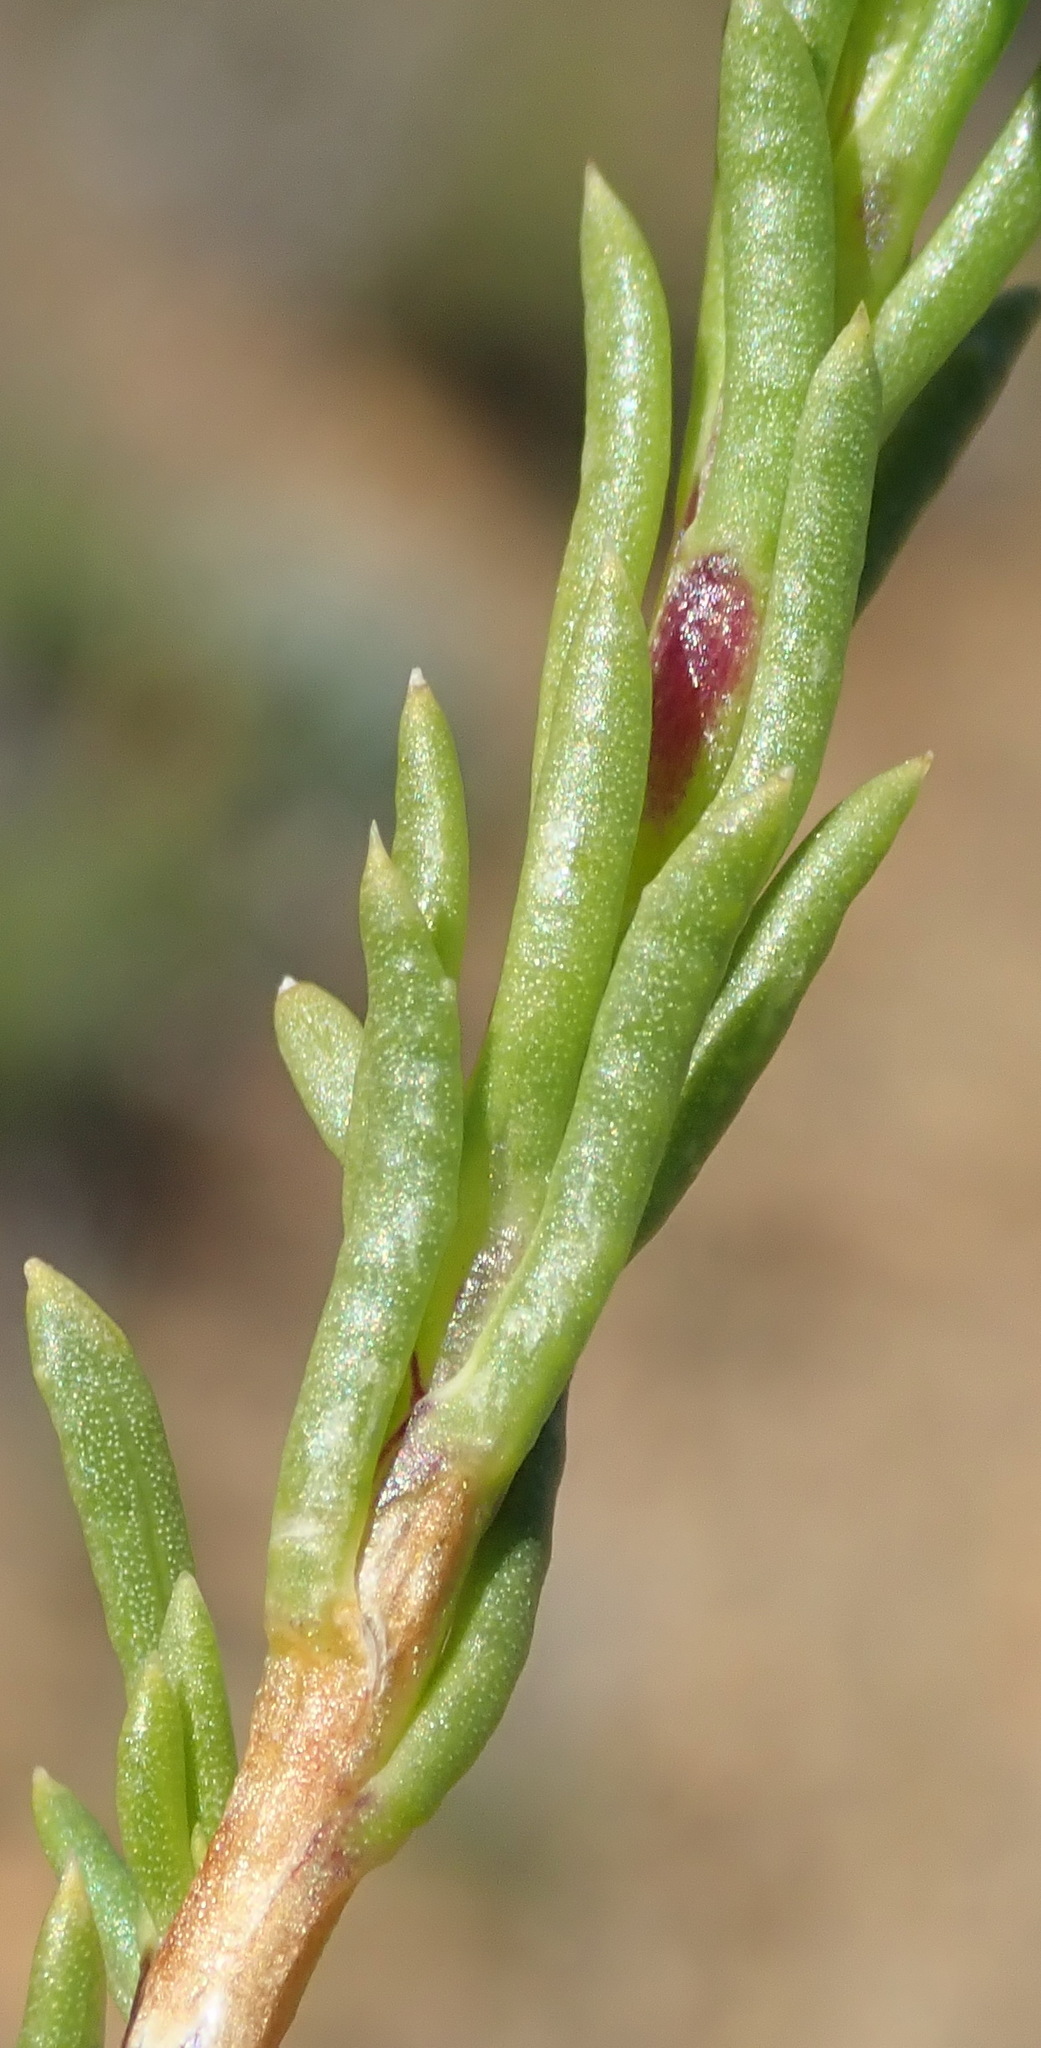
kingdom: Plantae
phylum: Tracheophyta
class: Magnoliopsida
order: Asterales
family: Asteraceae
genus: Felicia
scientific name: Felicia filifolia
